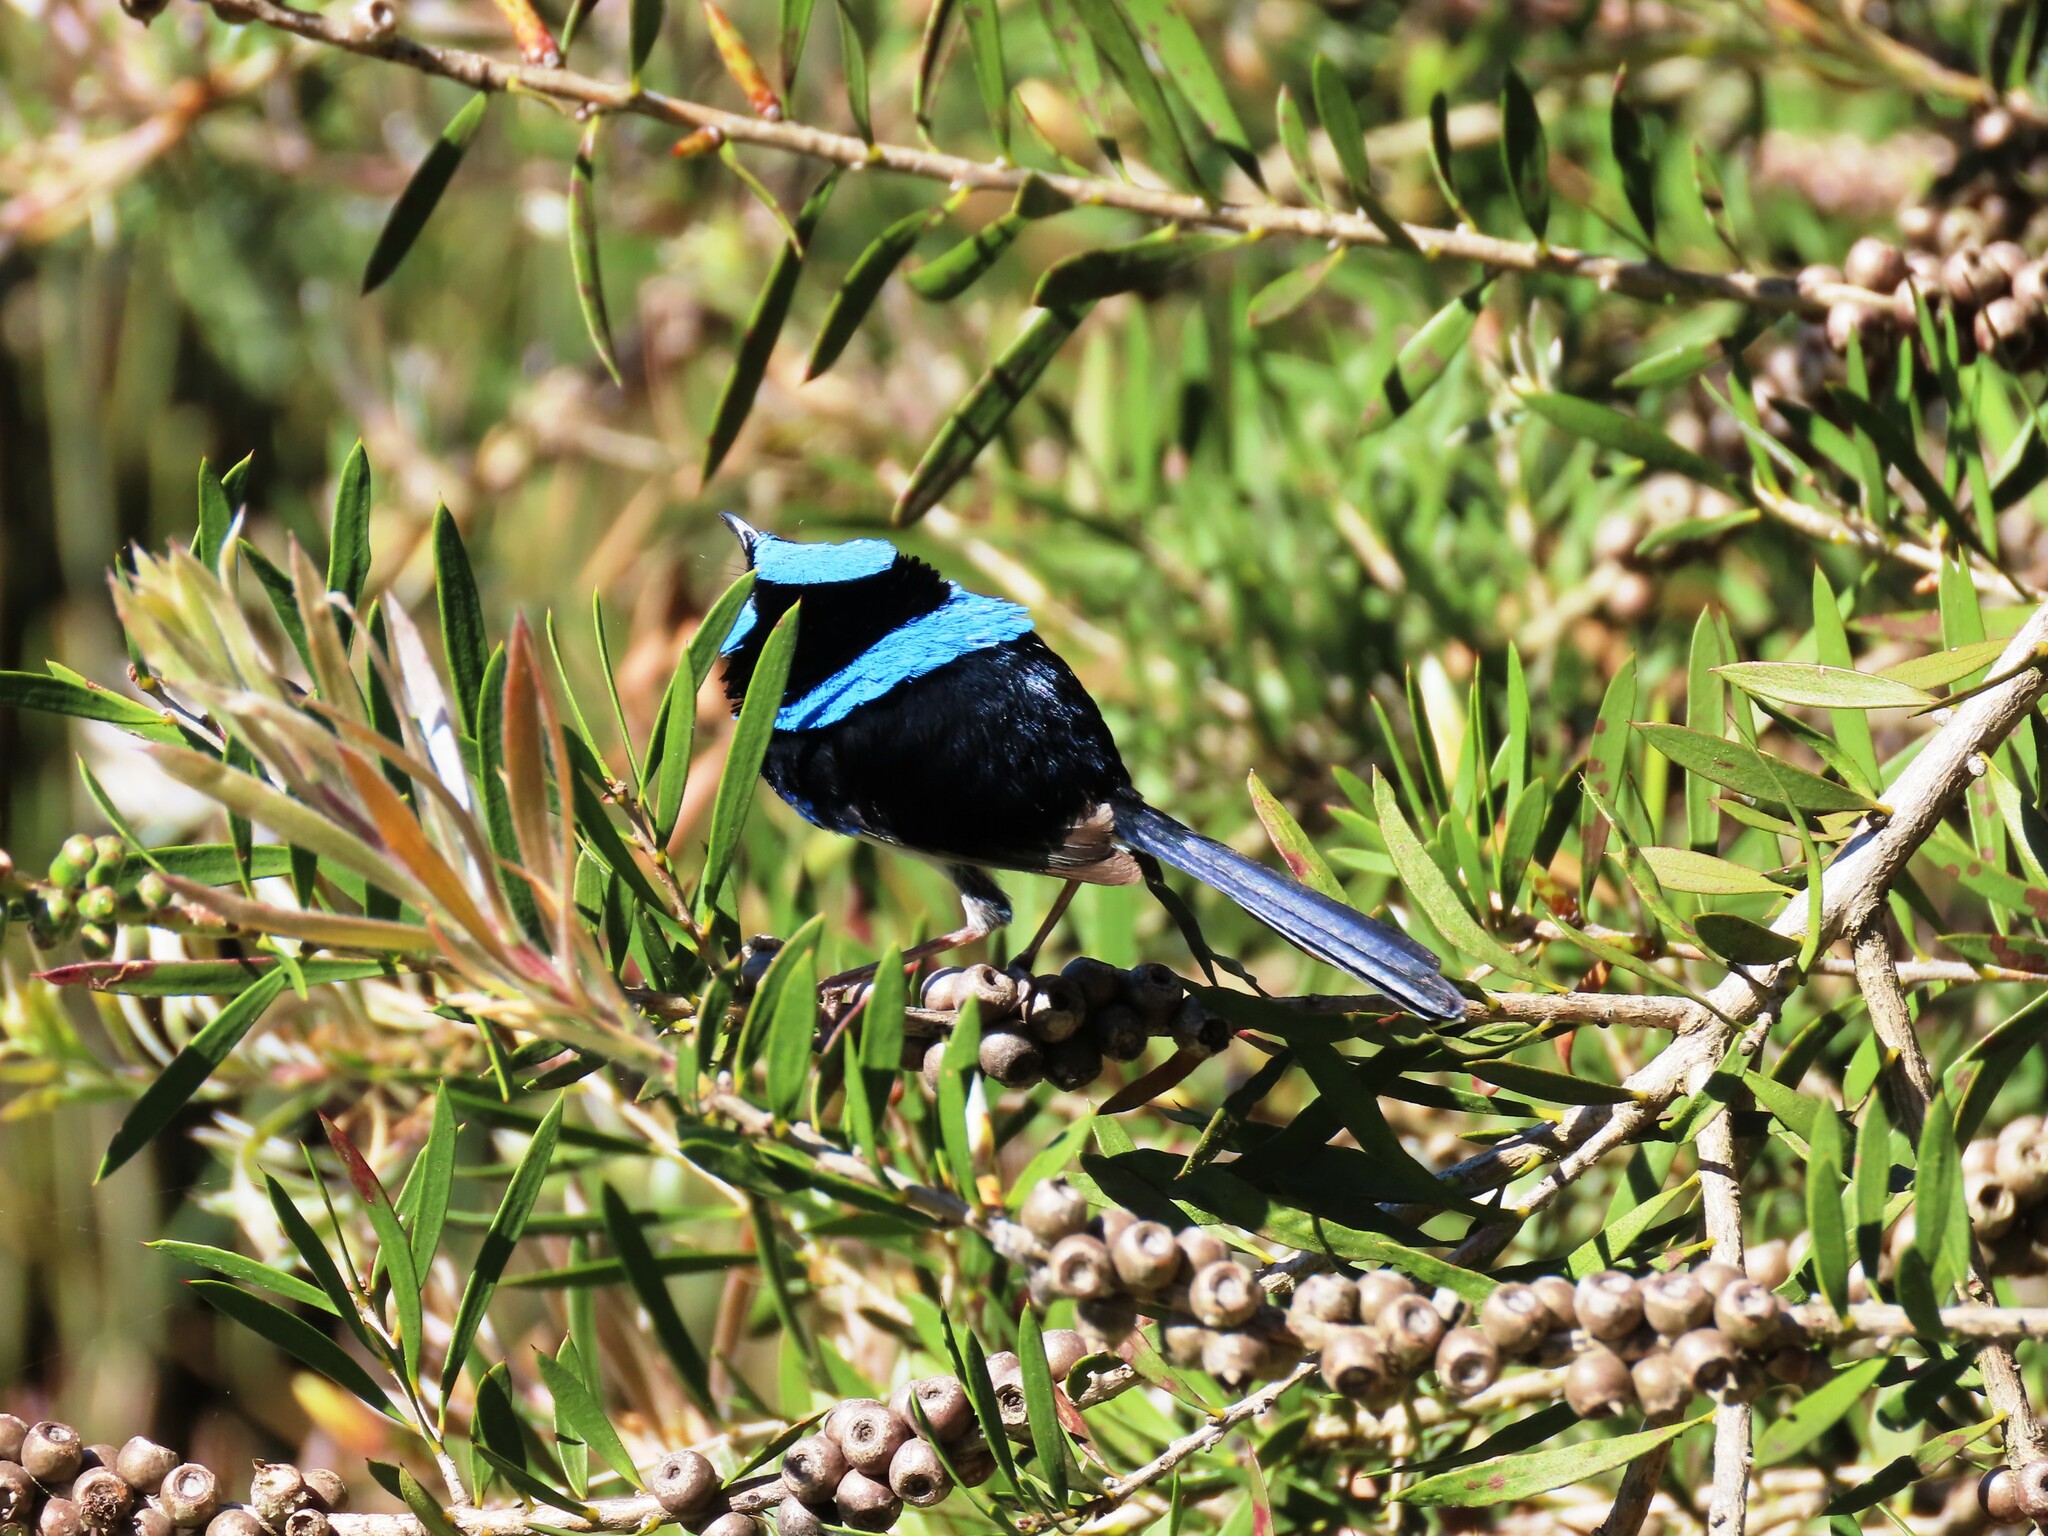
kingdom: Animalia
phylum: Chordata
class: Aves
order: Passeriformes
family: Maluridae
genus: Malurus
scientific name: Malurus cyaneus
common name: Superb fairywren
